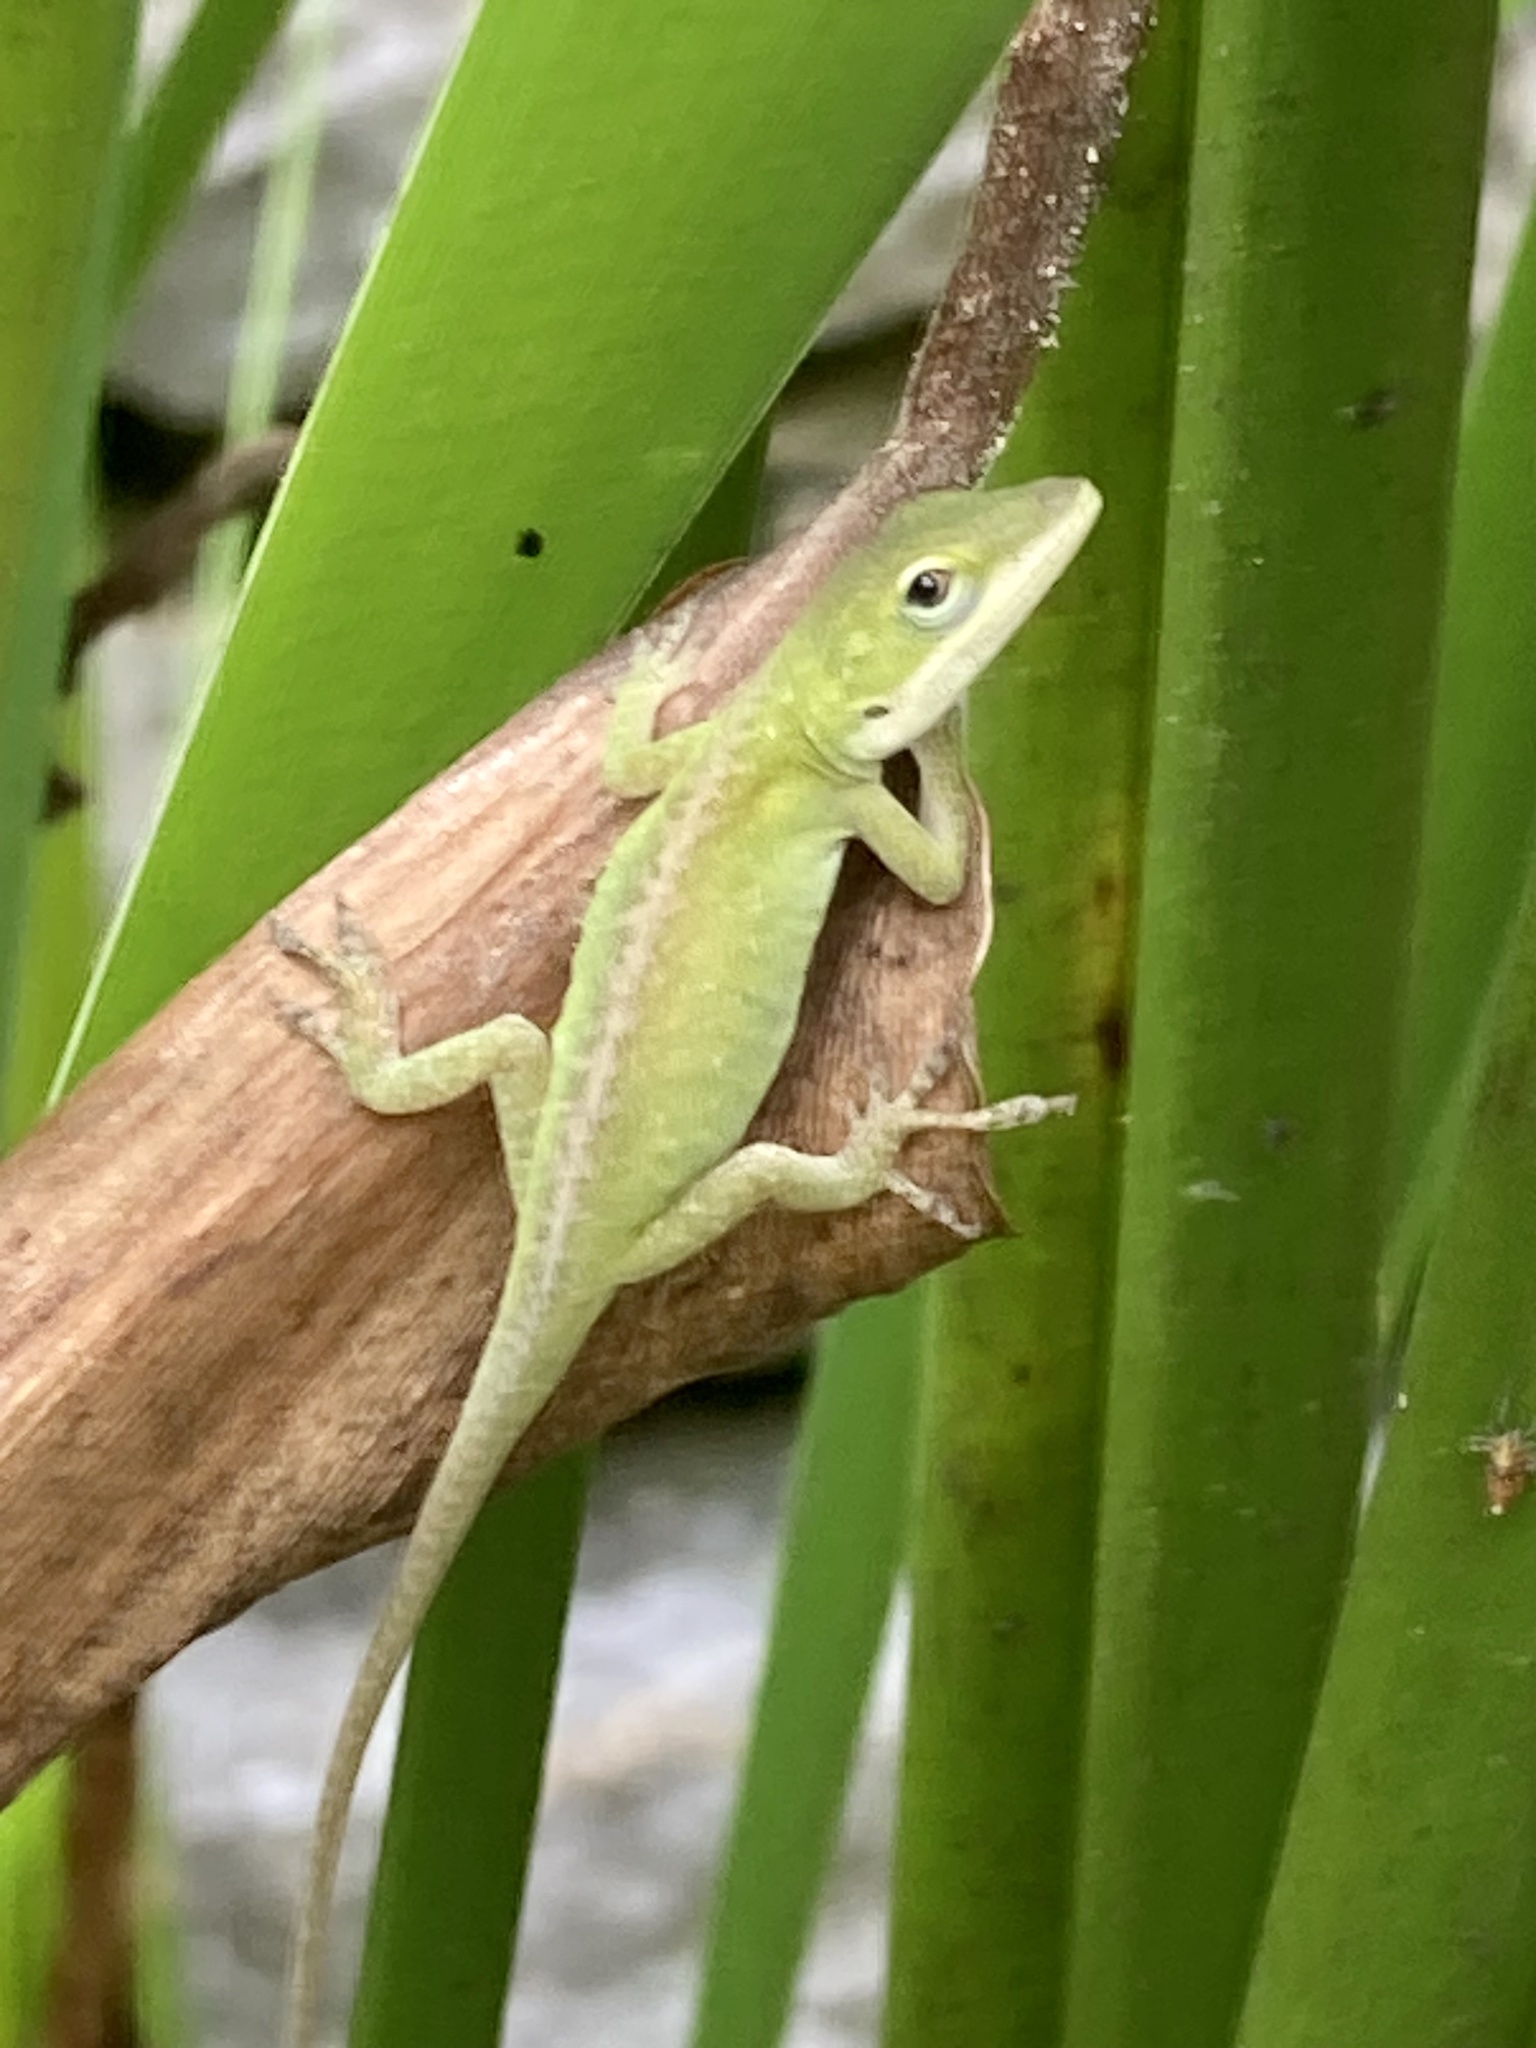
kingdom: Animalia
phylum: Chordata
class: Squamata
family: Dactyloidae
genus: Anolis
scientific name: Anolis carolinensis
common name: Green anole
